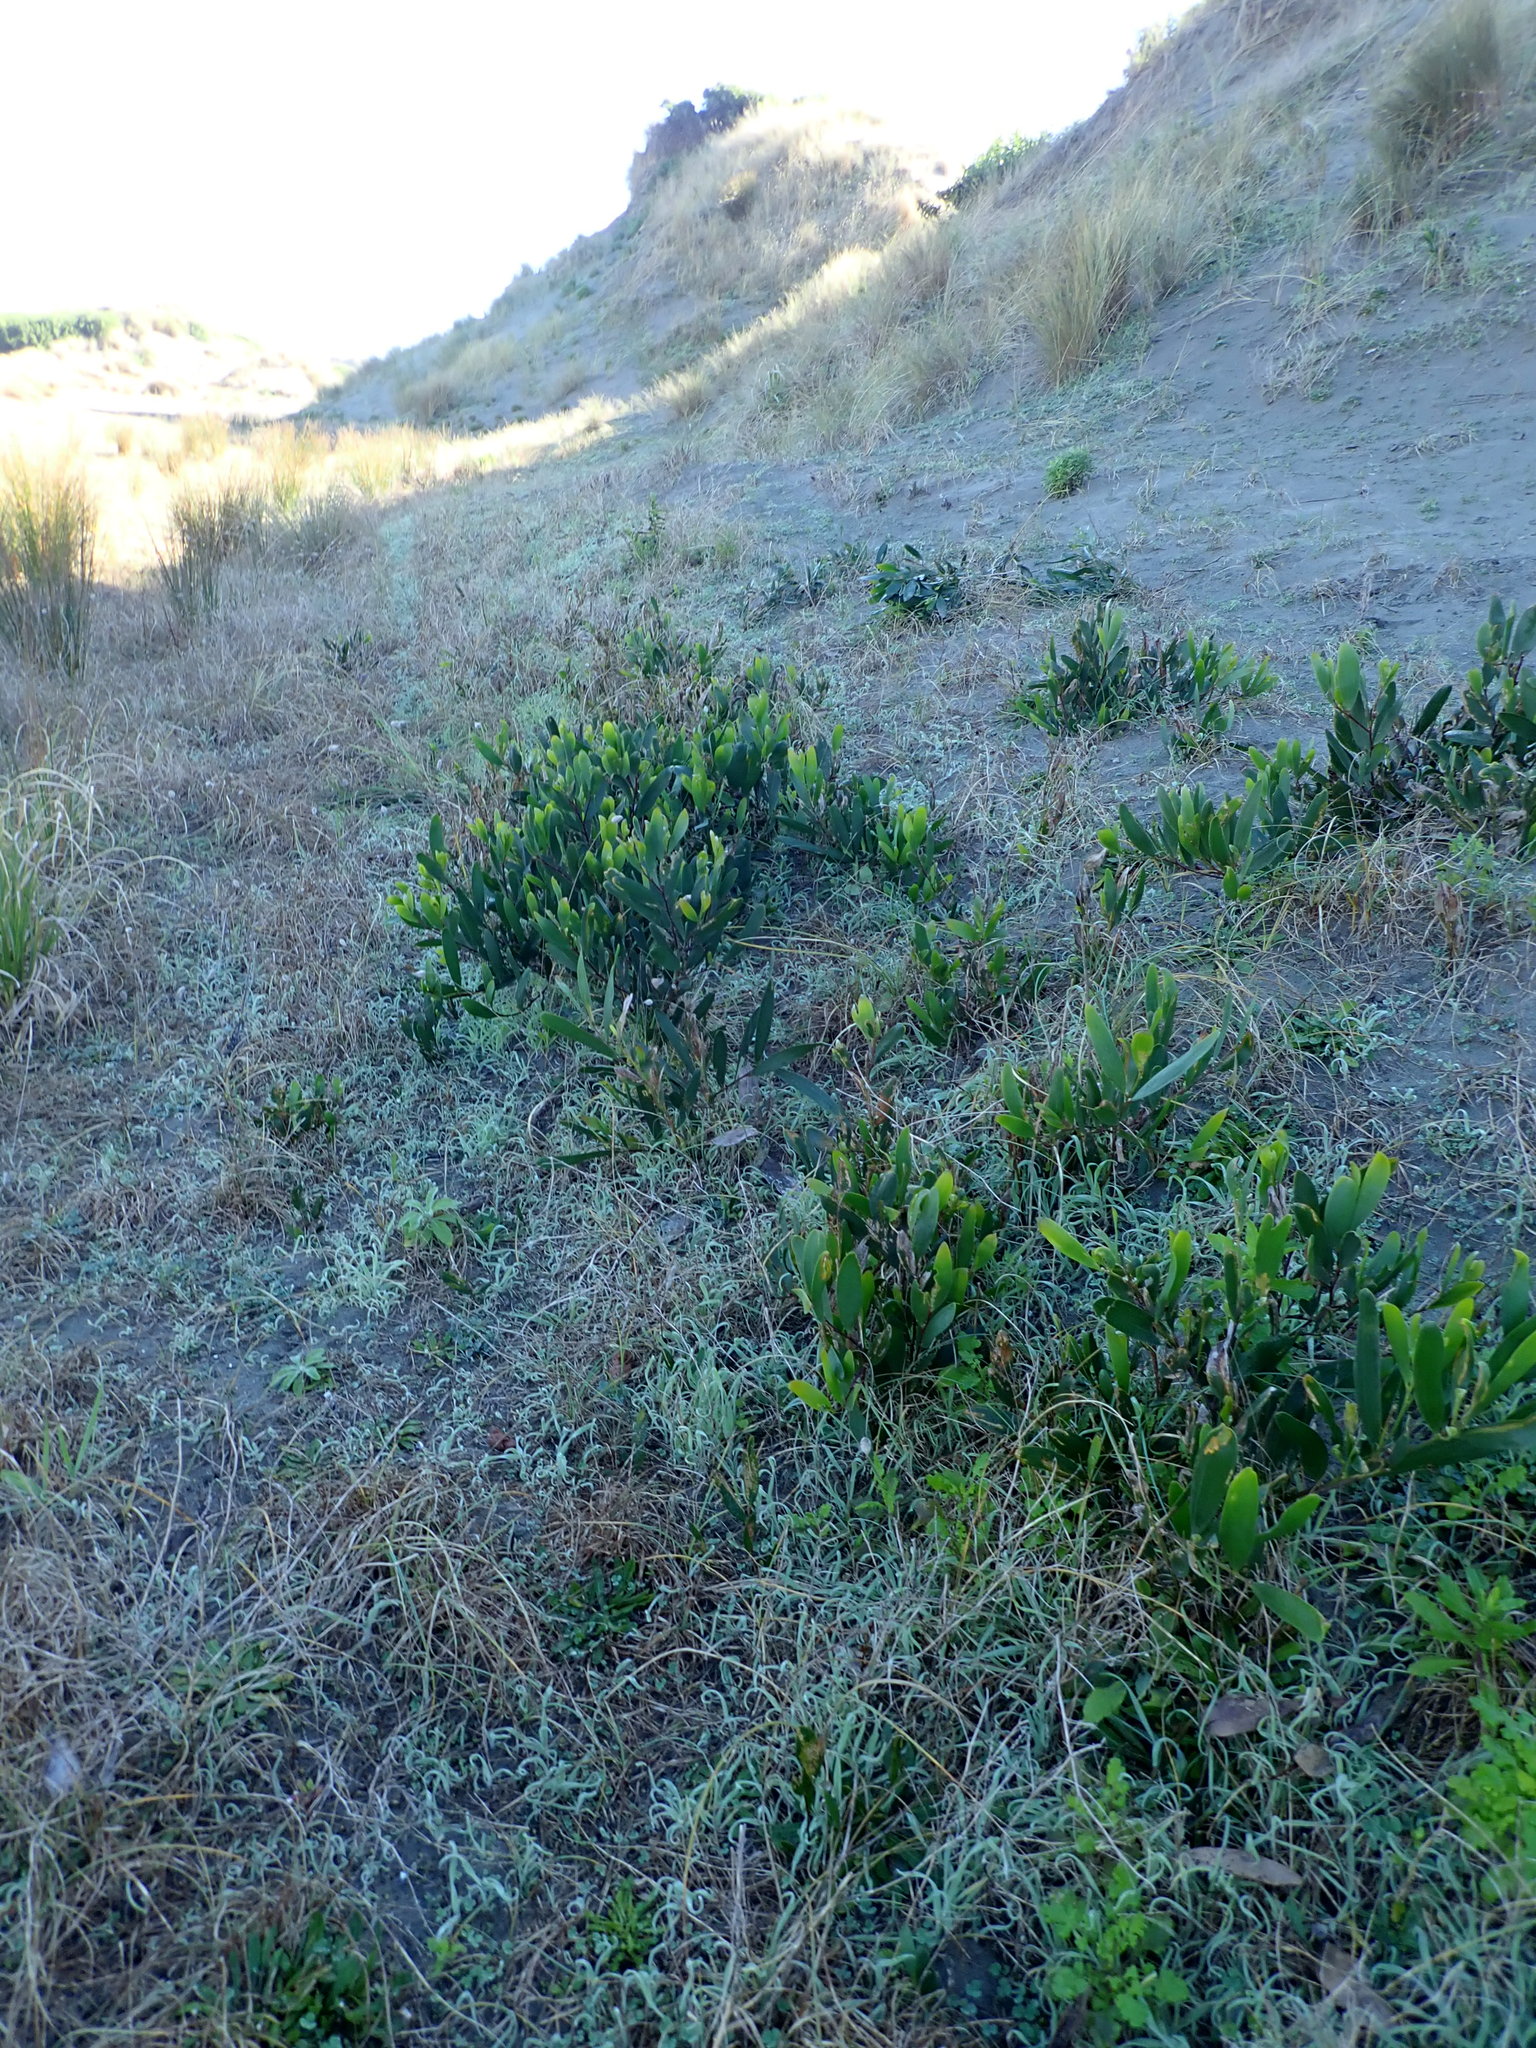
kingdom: Plantae
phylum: Tracheophyta
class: Magnoliopsida
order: Fabales
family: Fabaceae
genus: Acacia
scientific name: Acacia longifolia
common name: Sydney golden wattle
